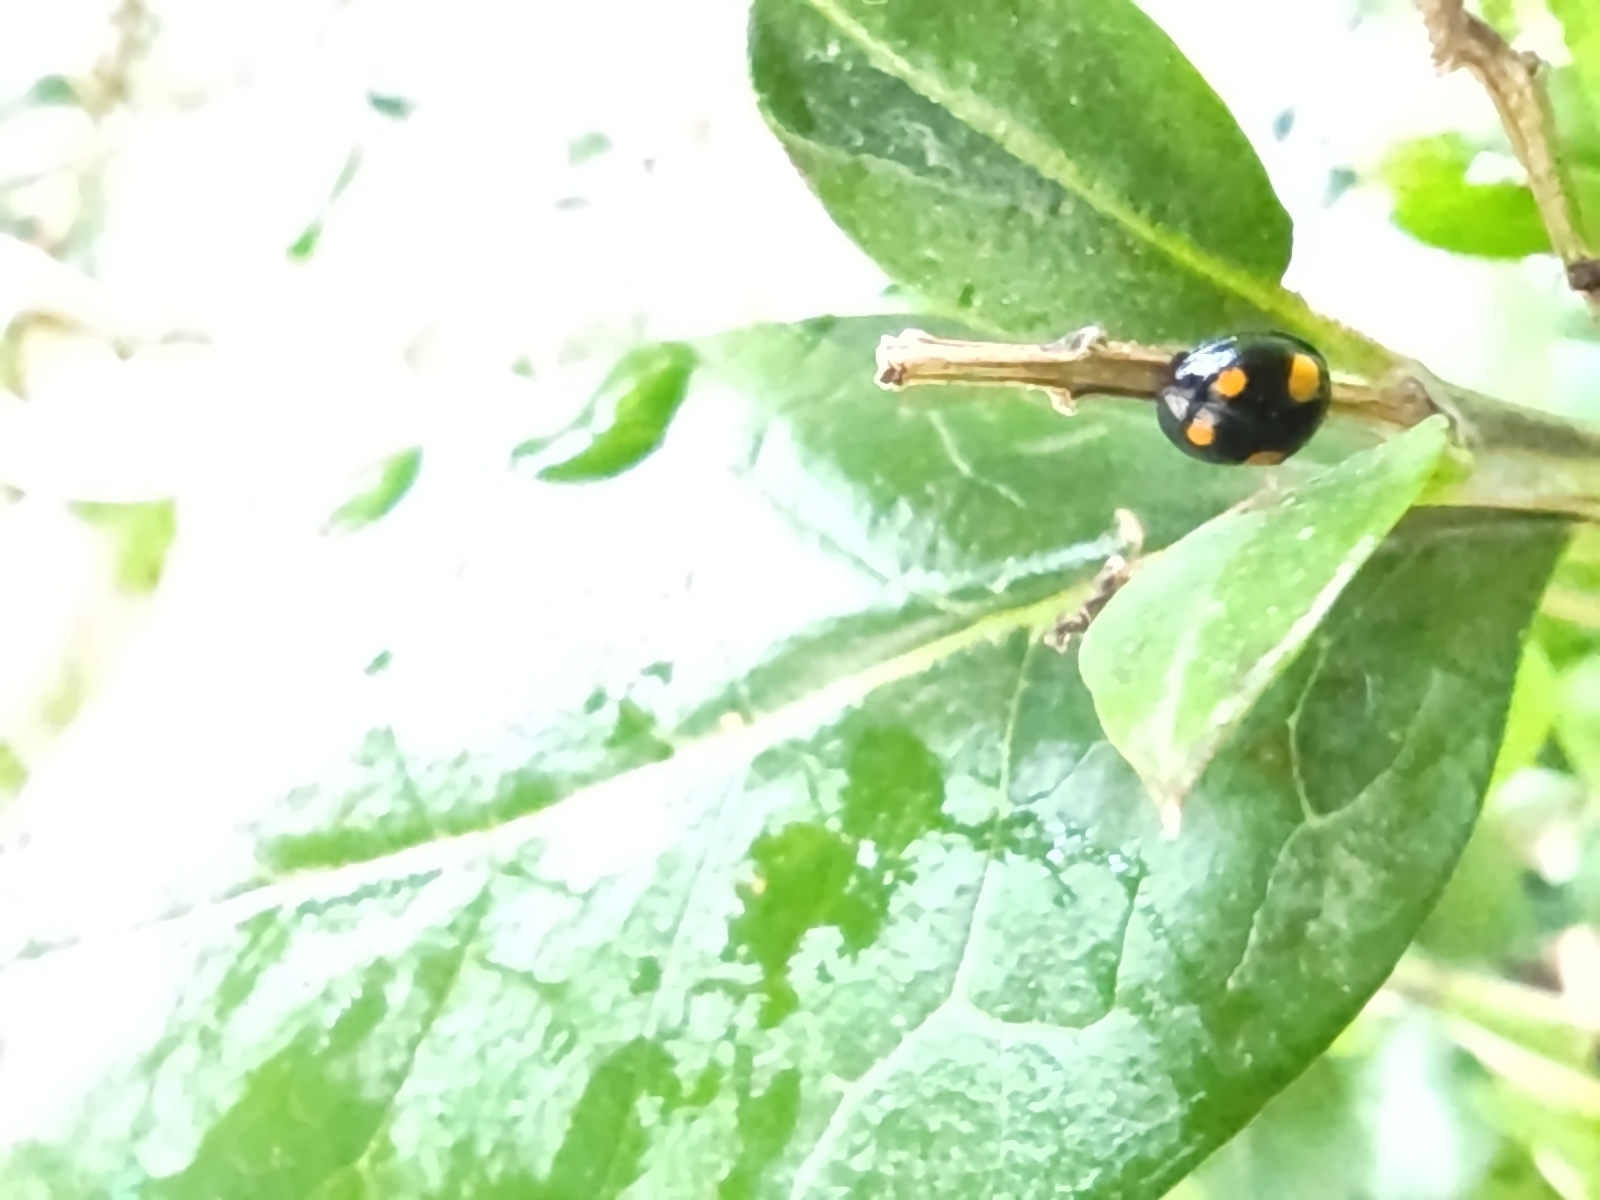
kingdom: Animalia
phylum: Arthropoda
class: Insecta
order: Coleoptera
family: Coccinellidae
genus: Harmonia
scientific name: Harmonia axyridis
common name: Harlequin ladybird
